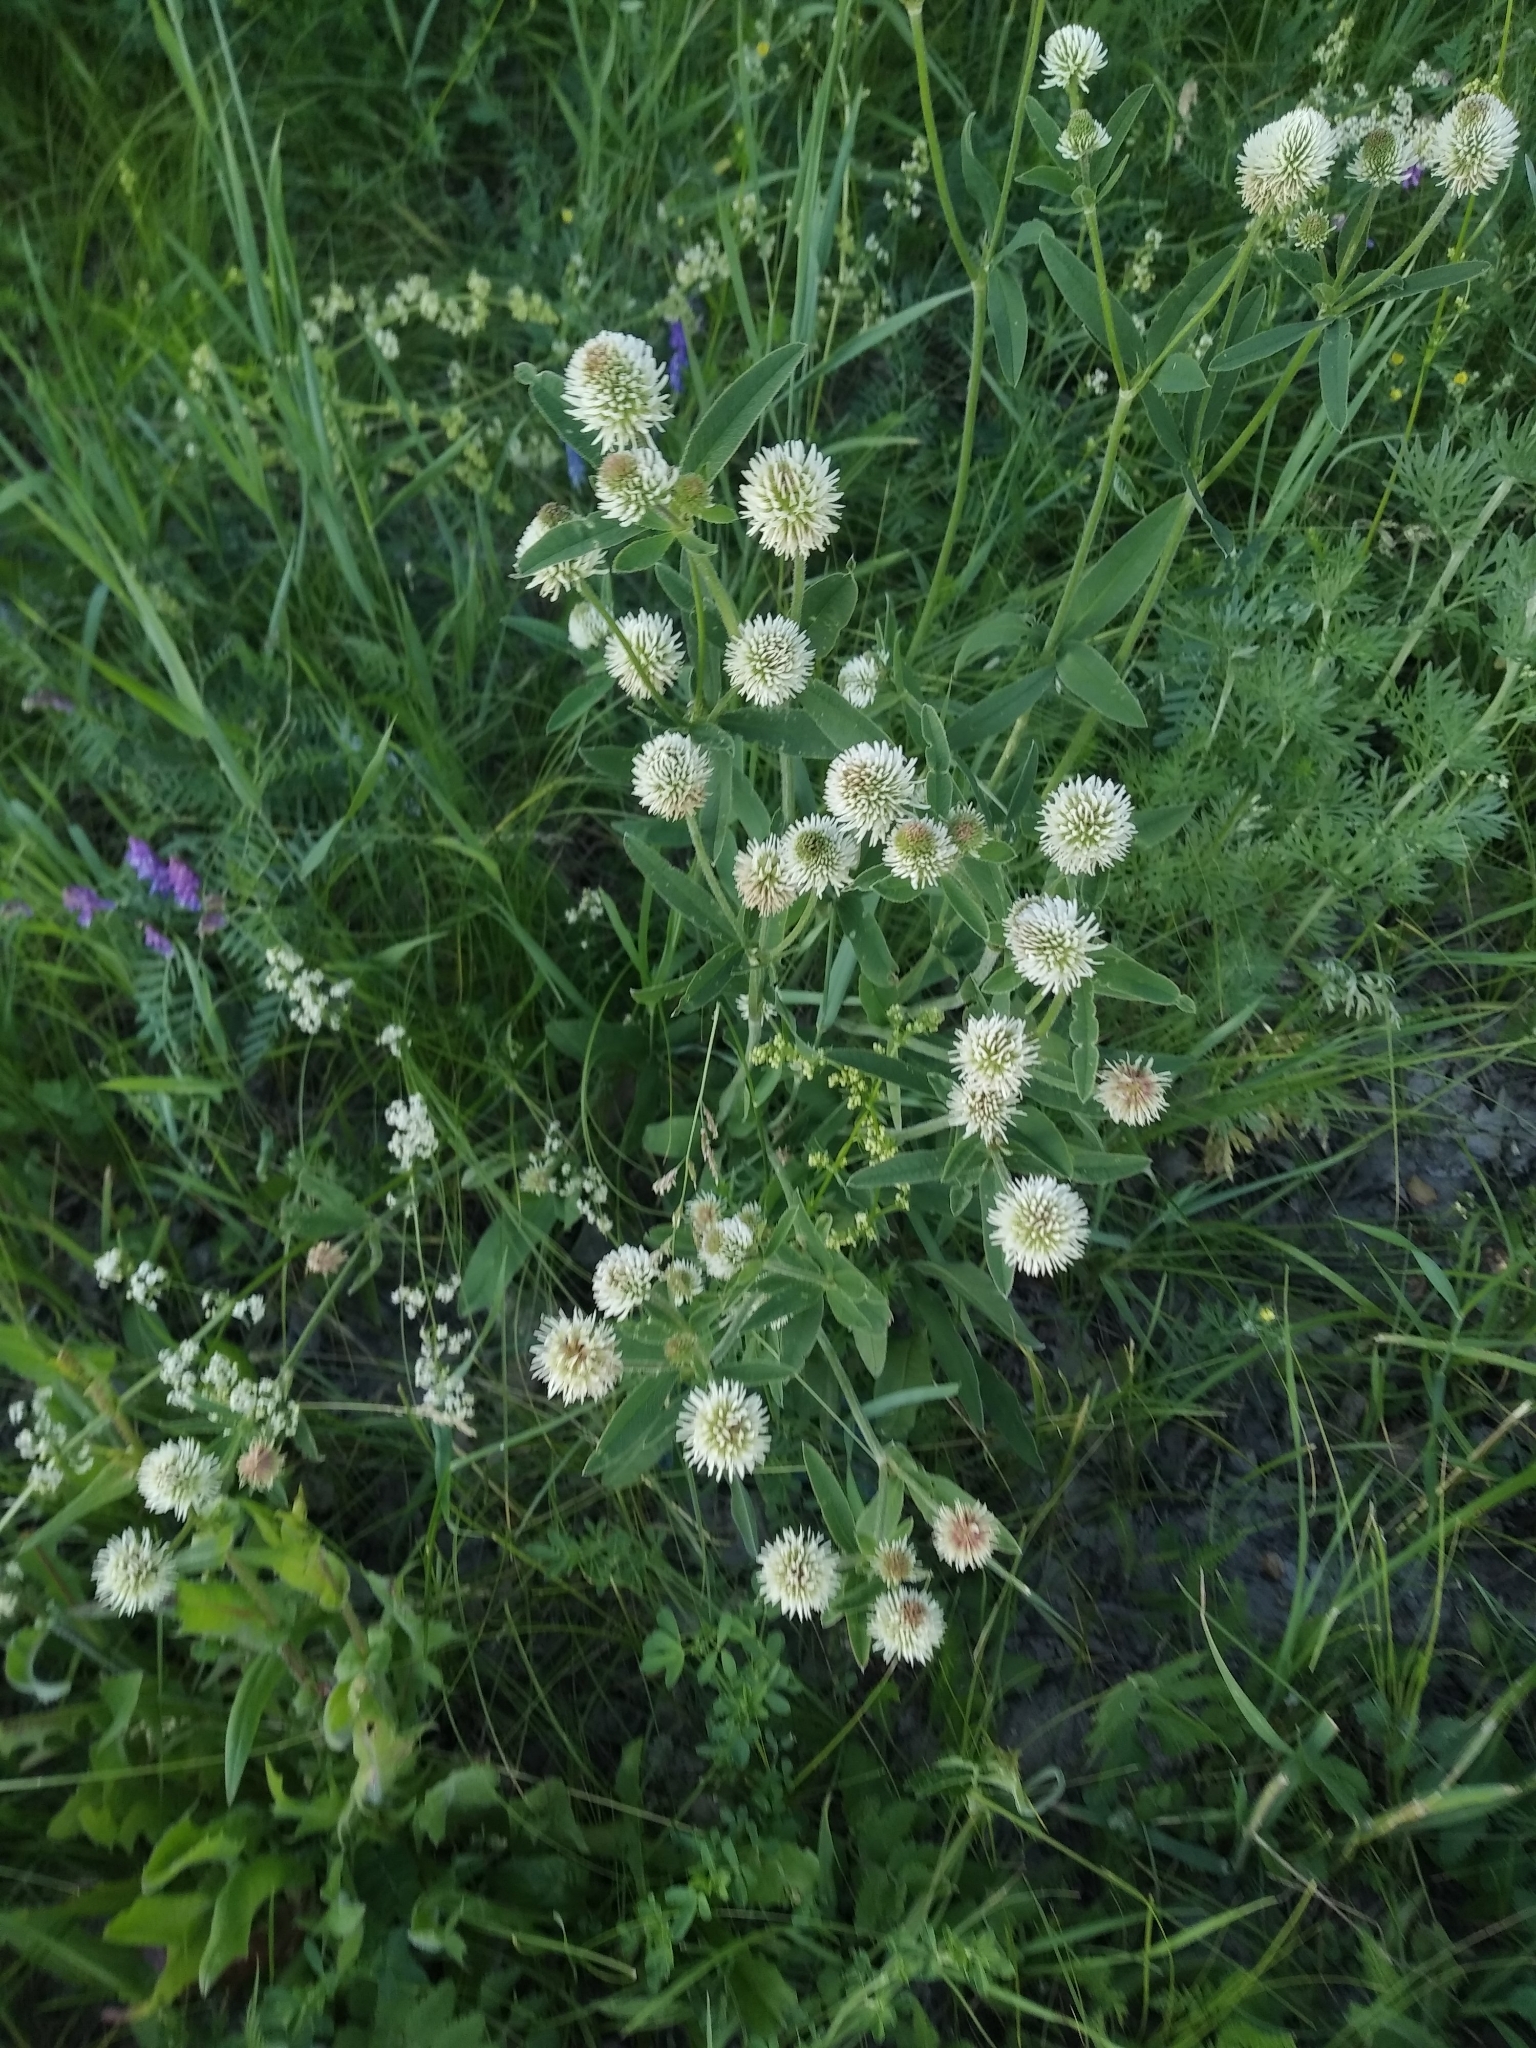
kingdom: Plantae
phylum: Tracheophyta
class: Magnoliopsida
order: Fabales
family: Fabaceae
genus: Trifolium
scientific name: Trifolium montanum
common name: Mountain clover
